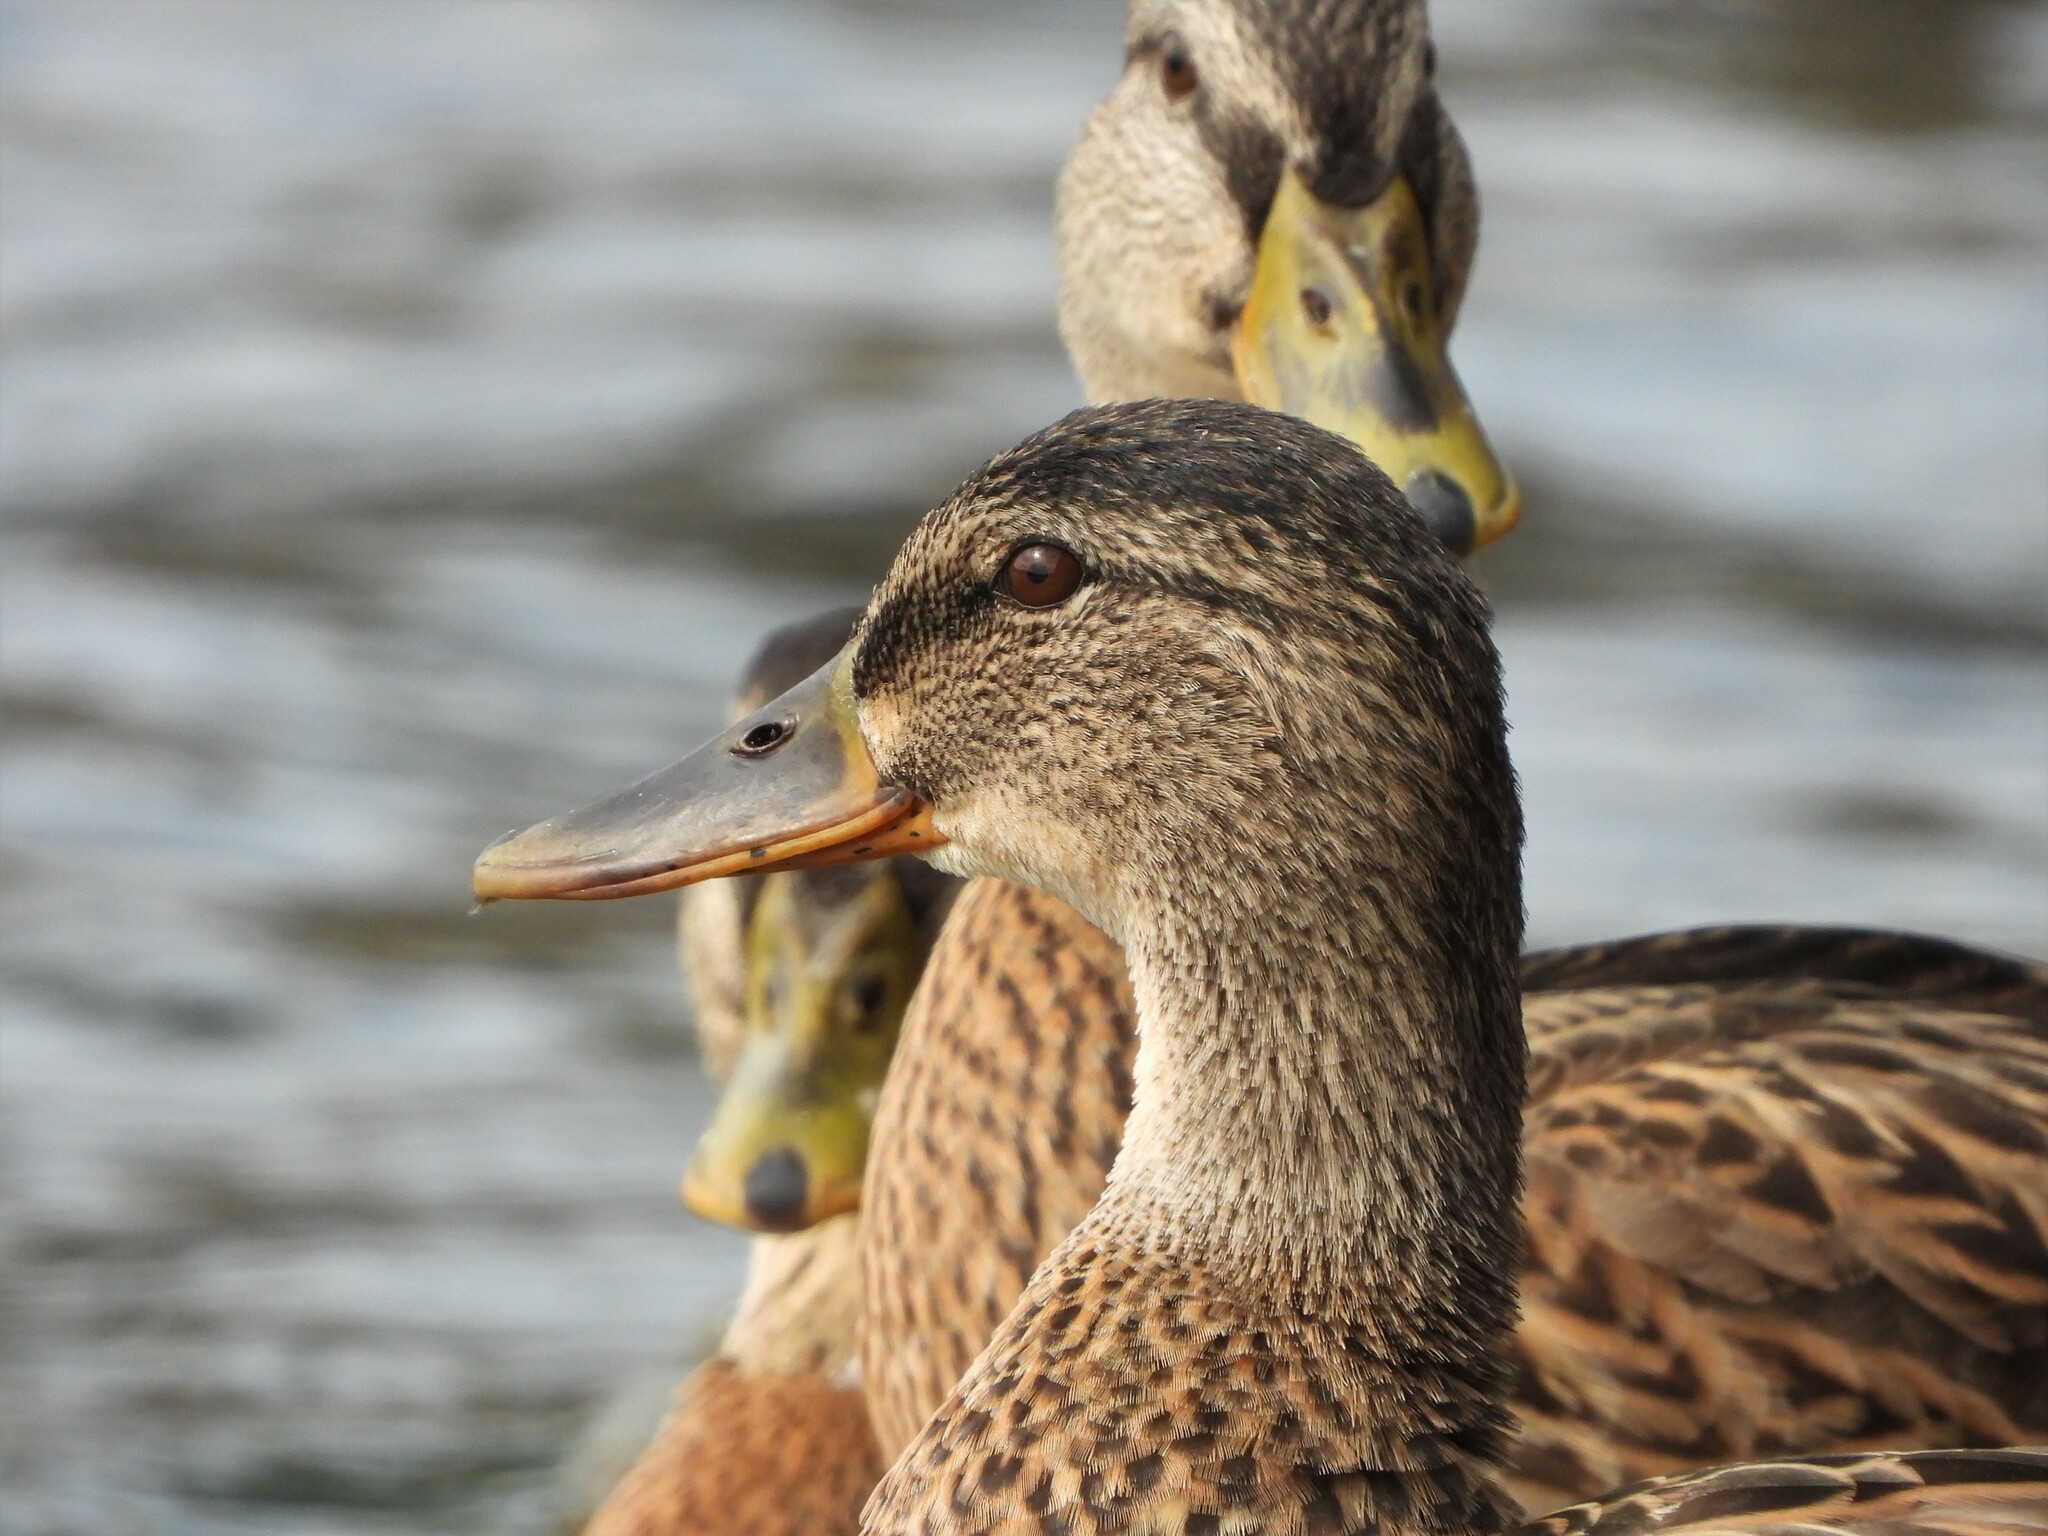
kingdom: Animalia
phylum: Chordata
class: Aves
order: Anseriformes
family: Anatidae
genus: Anas
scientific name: Anas platyrhynchos
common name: Mallard
